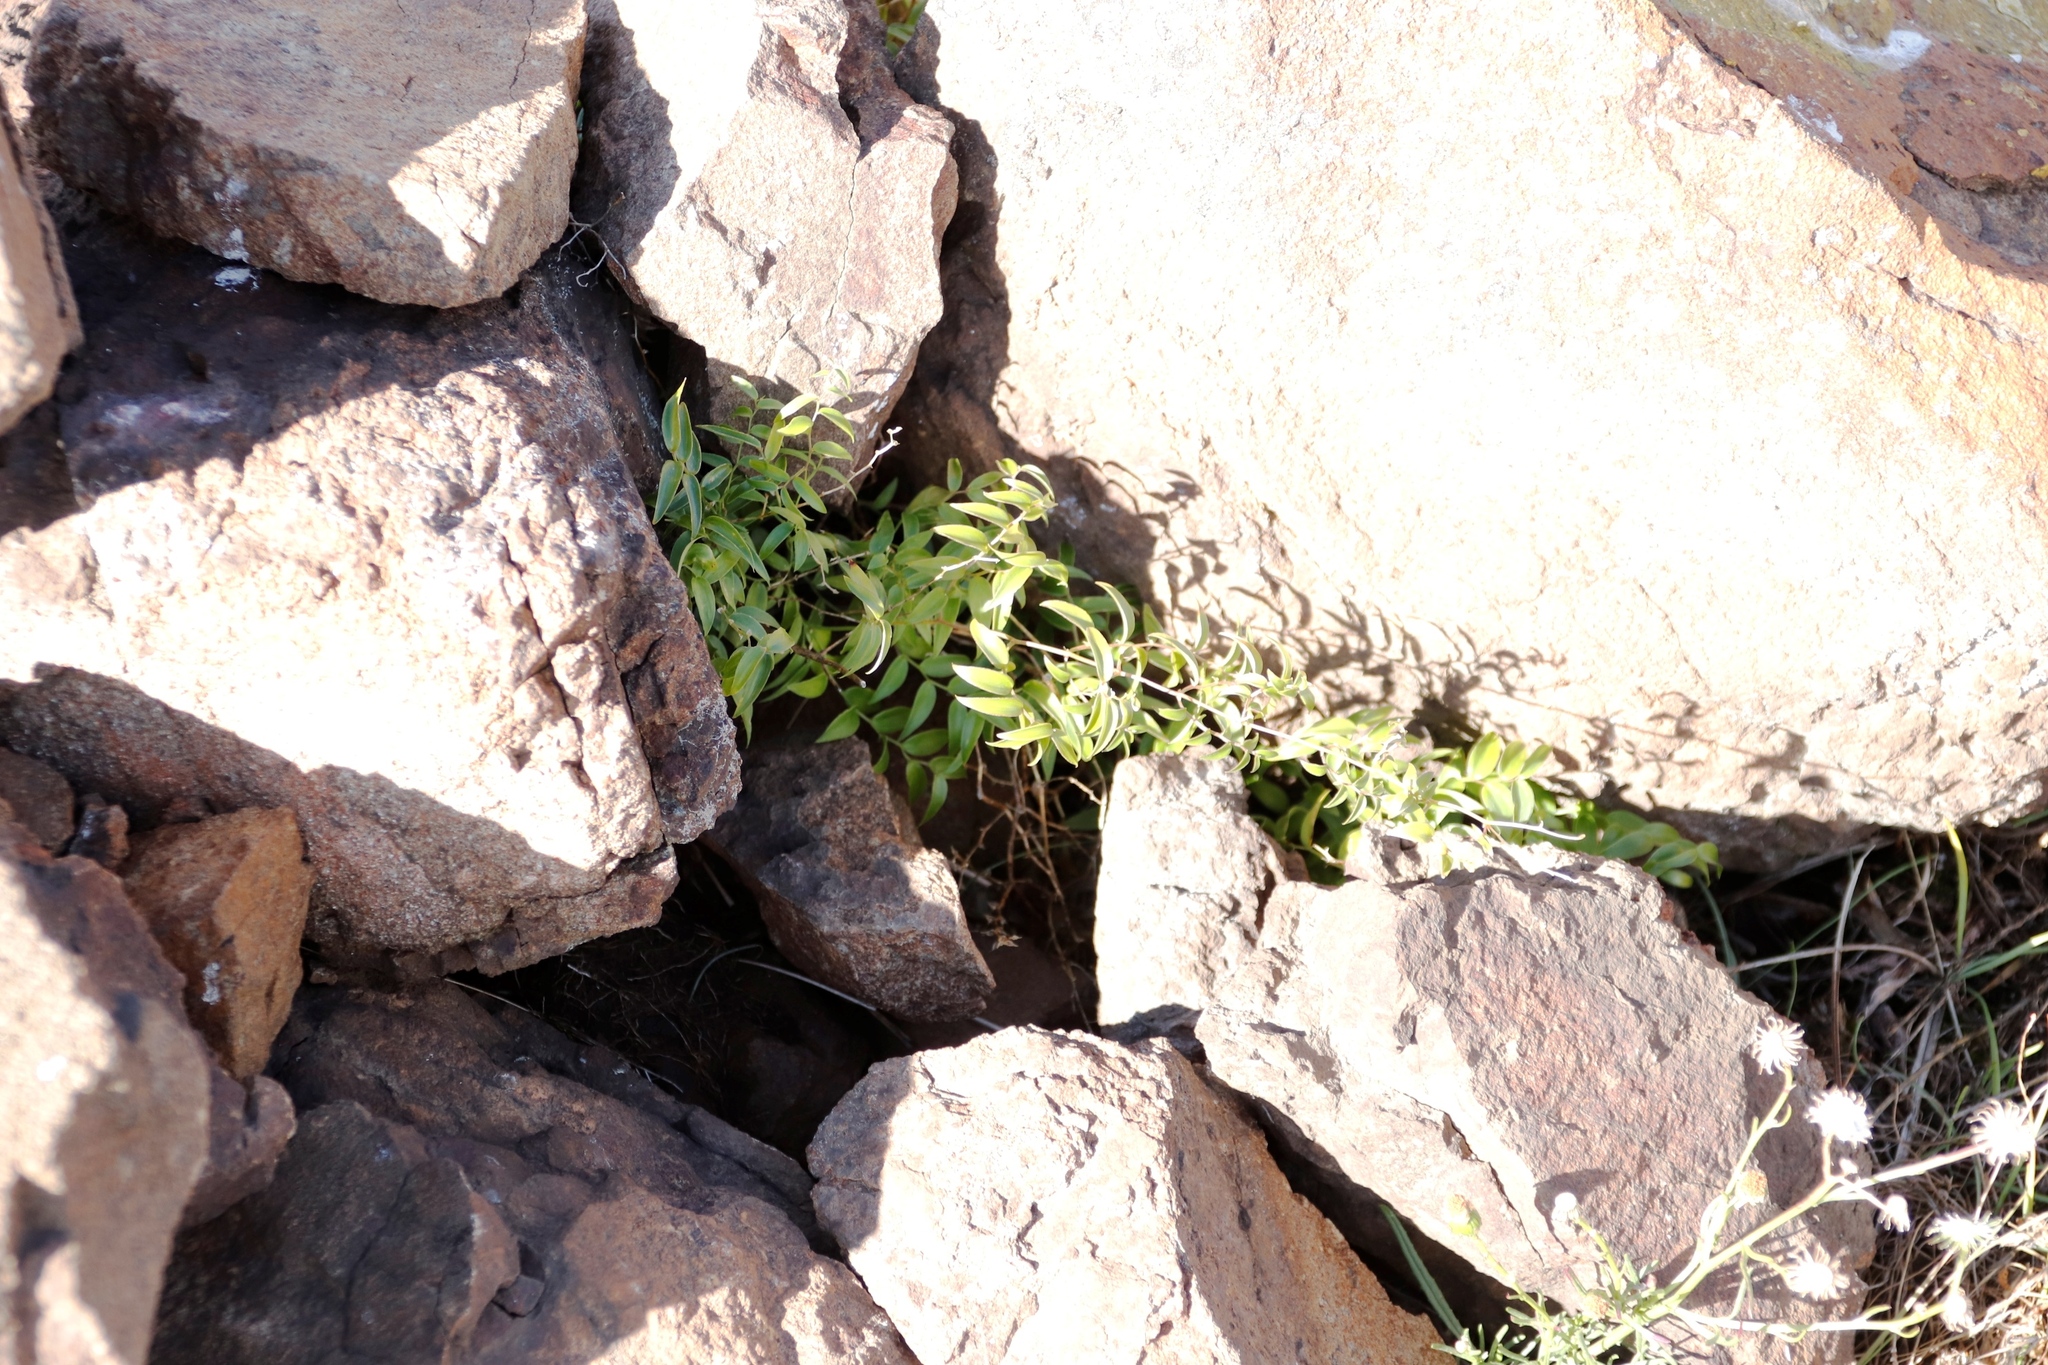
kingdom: Plantae
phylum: Tracheophyta
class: Liliopsida
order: Asparagales
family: Asparagaceae
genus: Asparagus
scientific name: Asparagus asparagoides
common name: African asparagus fern
